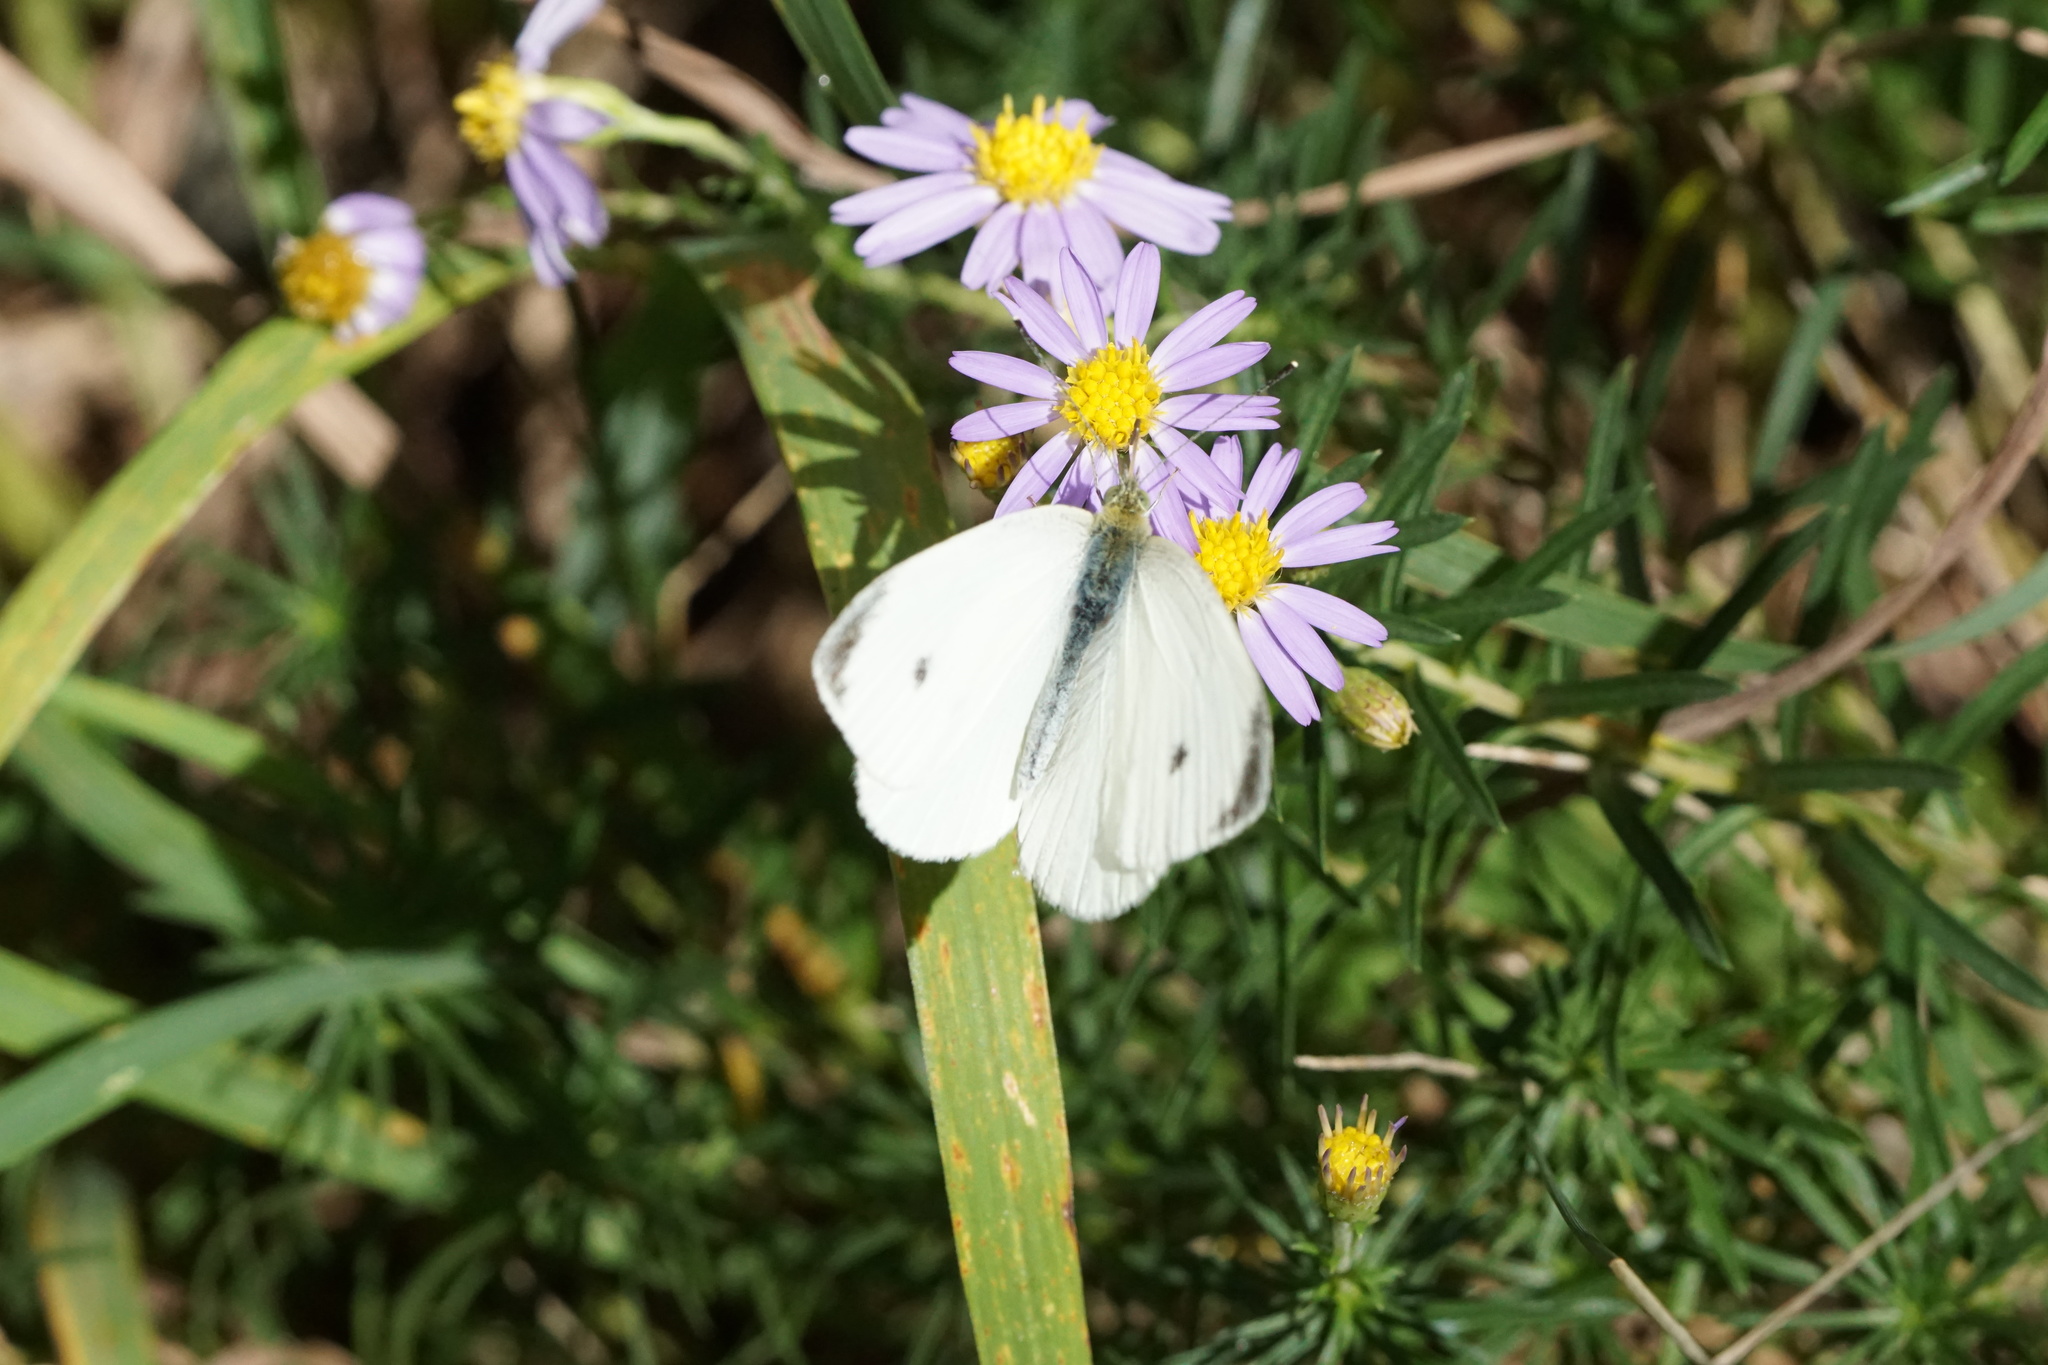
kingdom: Animalia
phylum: Arthropoda
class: Insecta
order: Lepidoptera
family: Pieridae
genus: Pieris
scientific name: Pieris rapae
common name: Small white
